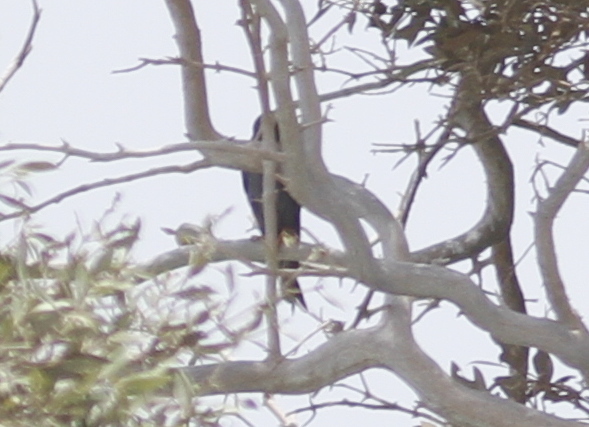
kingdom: Animalia
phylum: Chordata
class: Aves
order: Falconiformes
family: Falconidae
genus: Falco
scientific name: Falco concolor
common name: Sooty falcon
